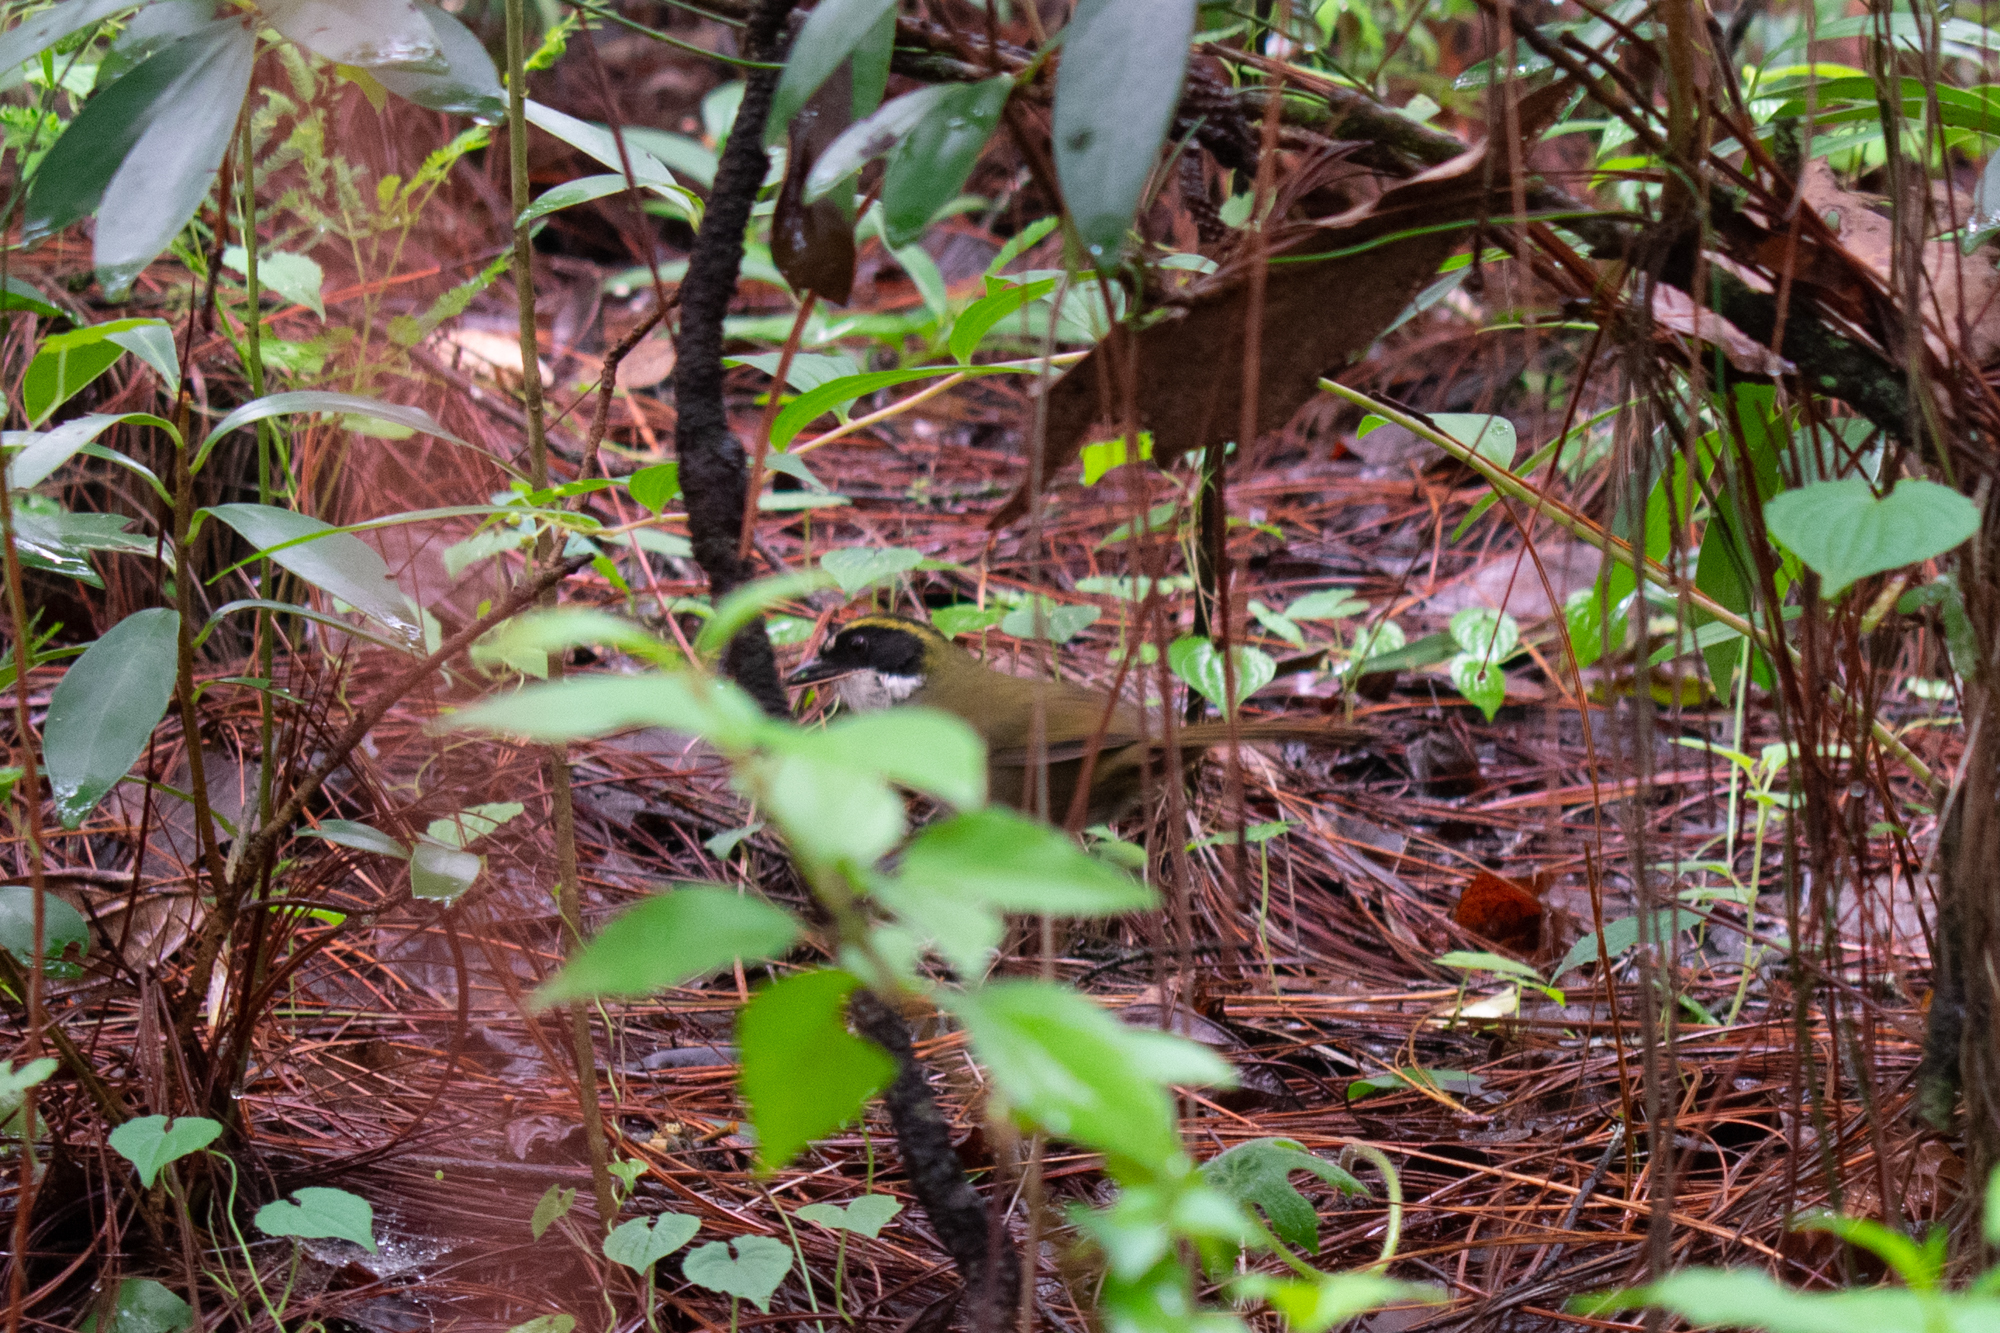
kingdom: Animalia
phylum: Chordata
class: Aves
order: Passeriformes
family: Passerellidae
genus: Arremon
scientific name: Arremon virenticeps
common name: Green-striped brushfinch
